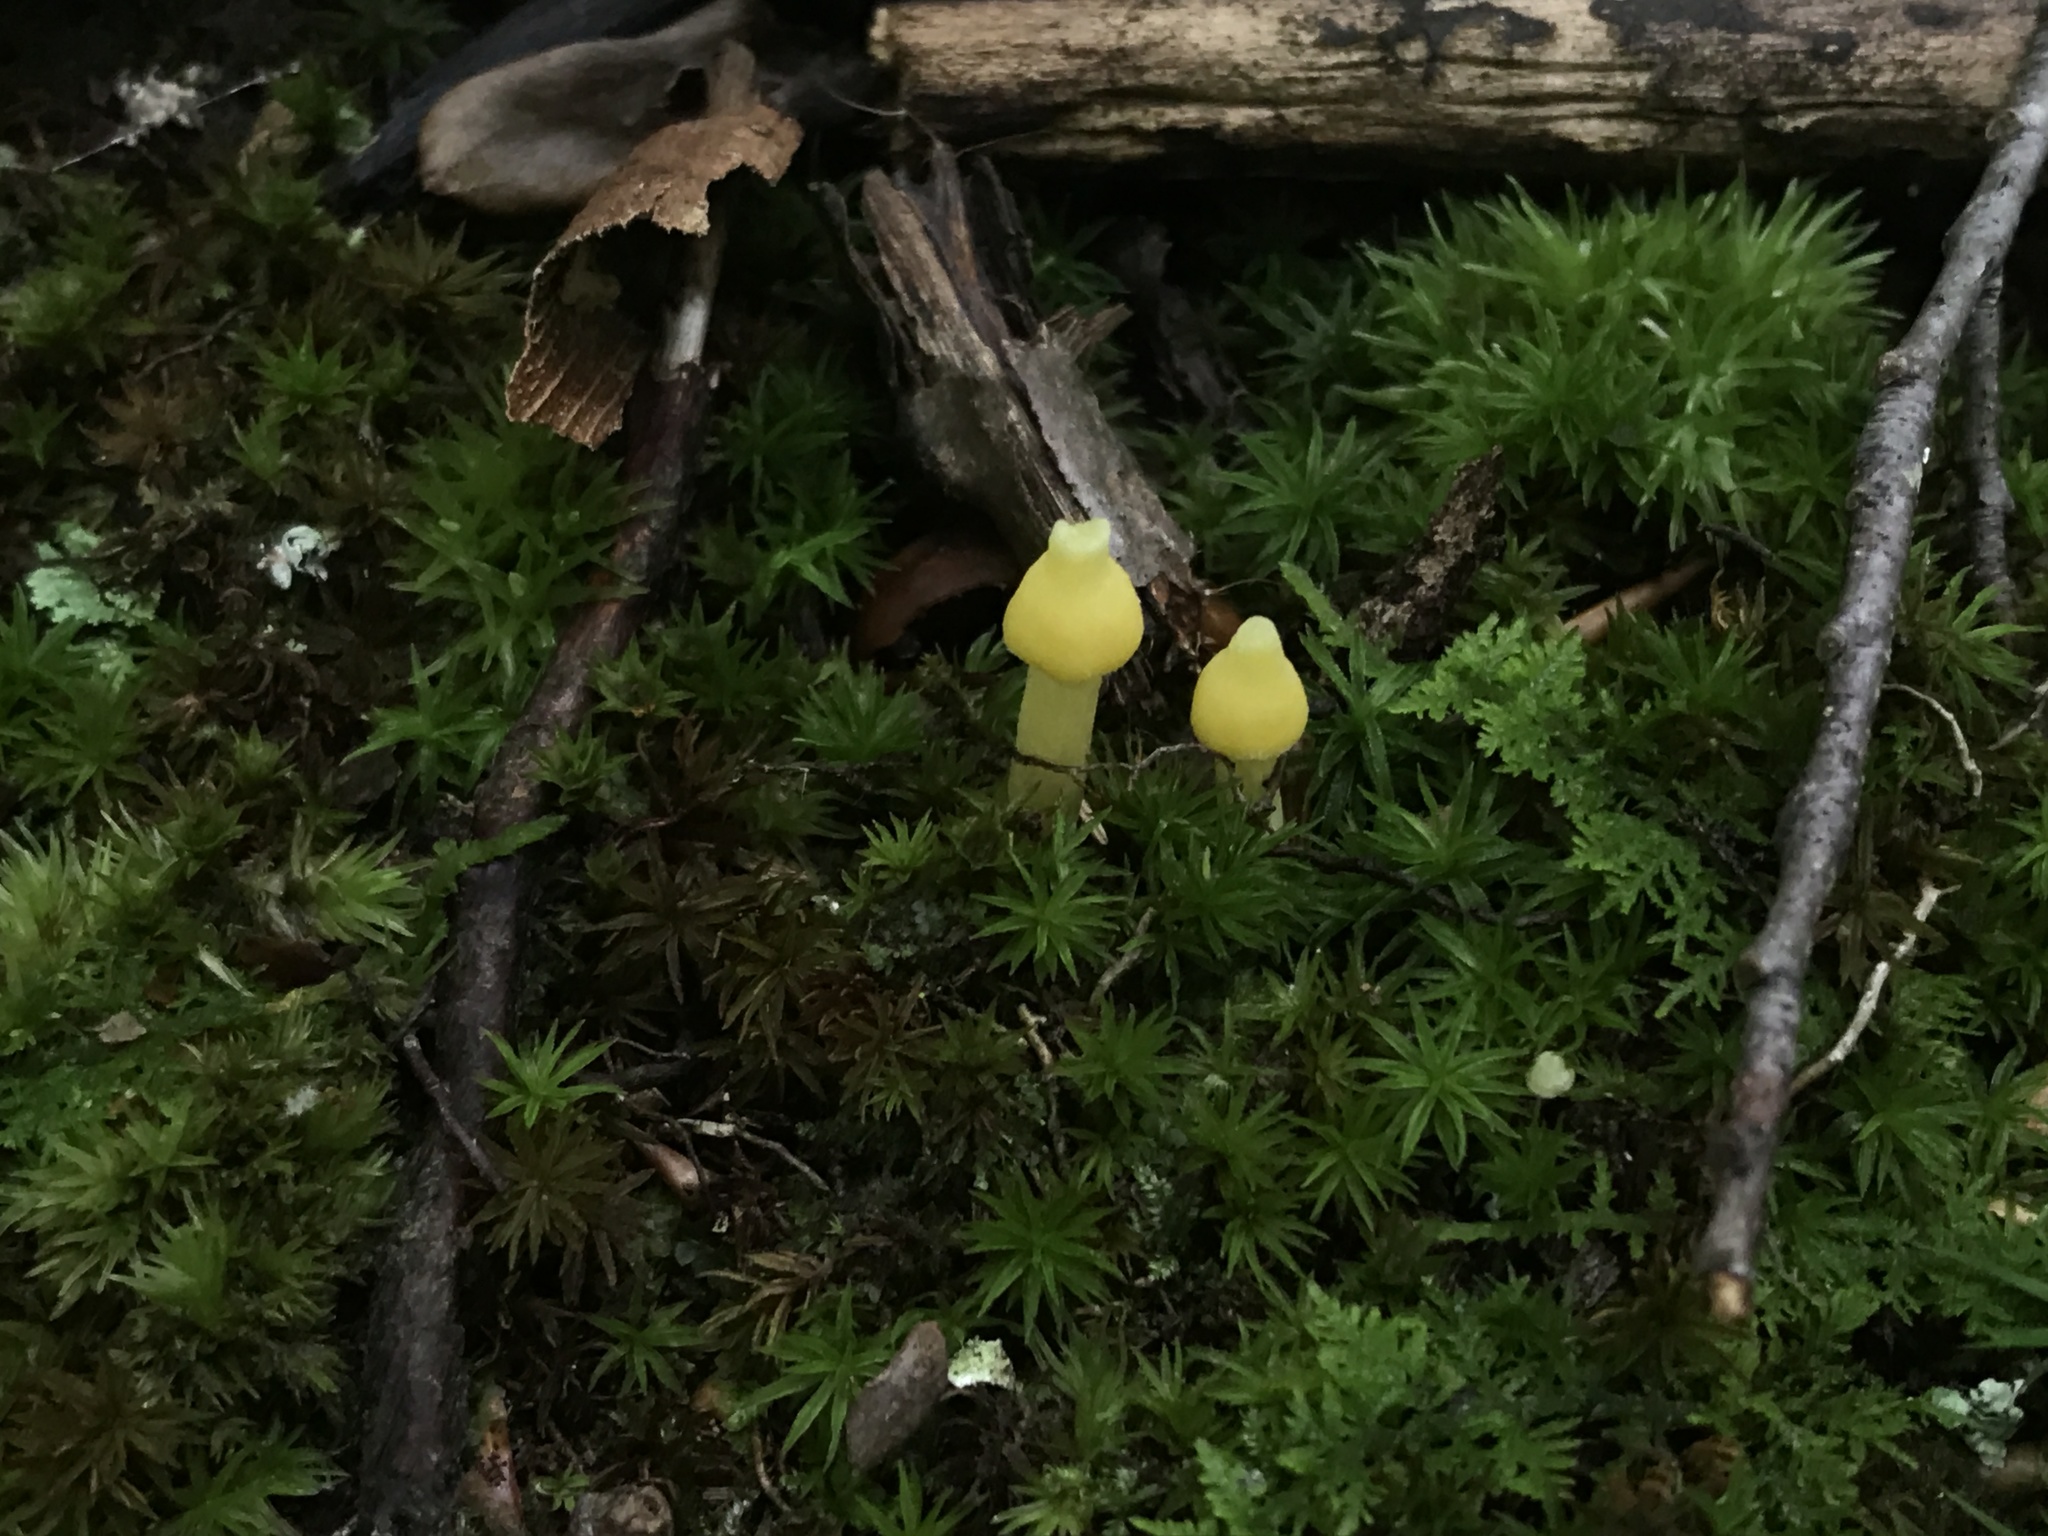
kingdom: Fungi
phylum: Basidiomycota
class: Agaricomycetes
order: Agaricales
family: Entolomataceae
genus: Entoloma
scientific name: Entoloma murrayi
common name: Yellow unicorn entoloma
